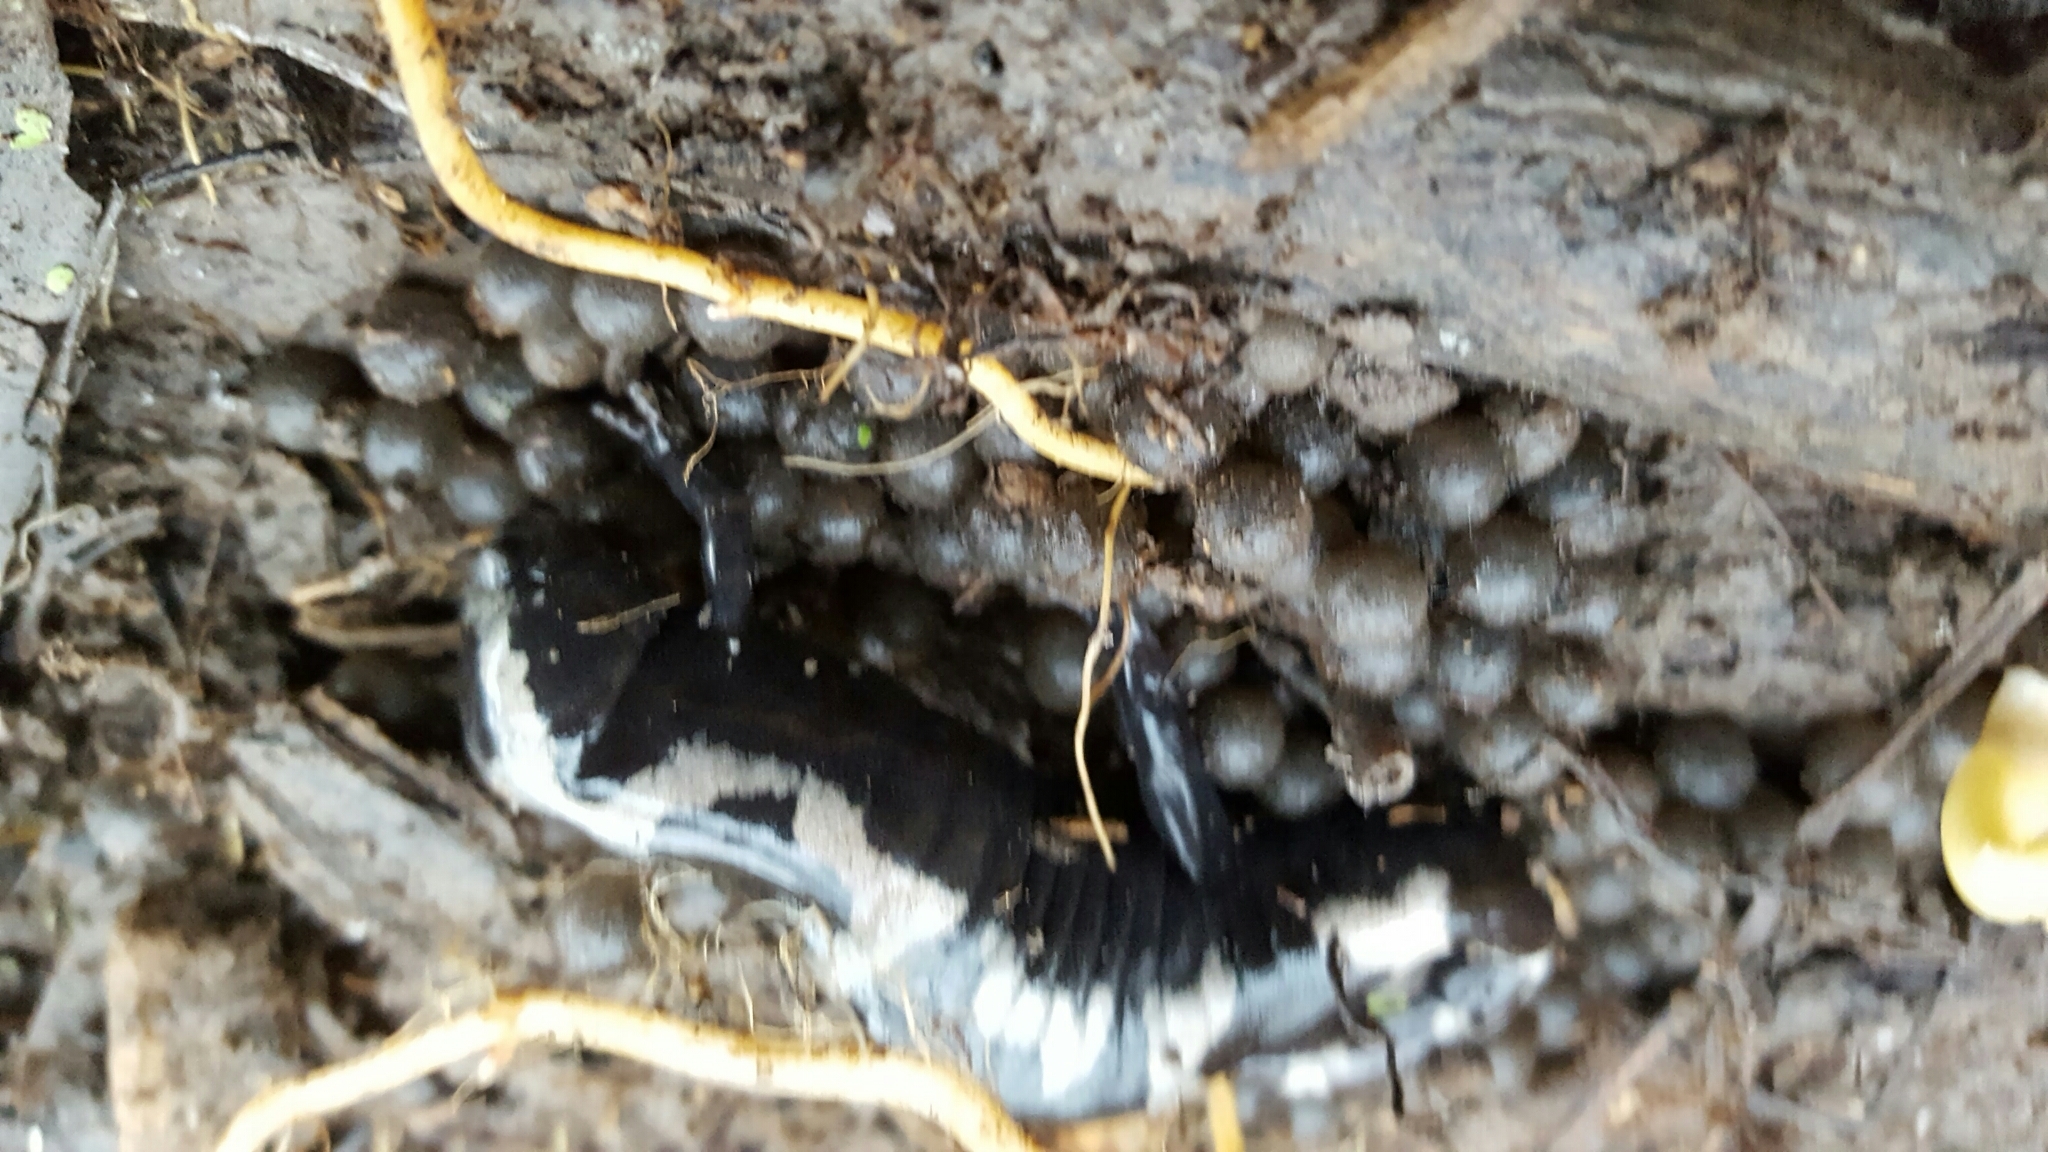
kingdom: Animalia
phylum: Chordata
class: Amphibia
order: Caudata
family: Ambystomatidae
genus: Ambystoma
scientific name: Ambystoma opacum
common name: Marbled salamander
